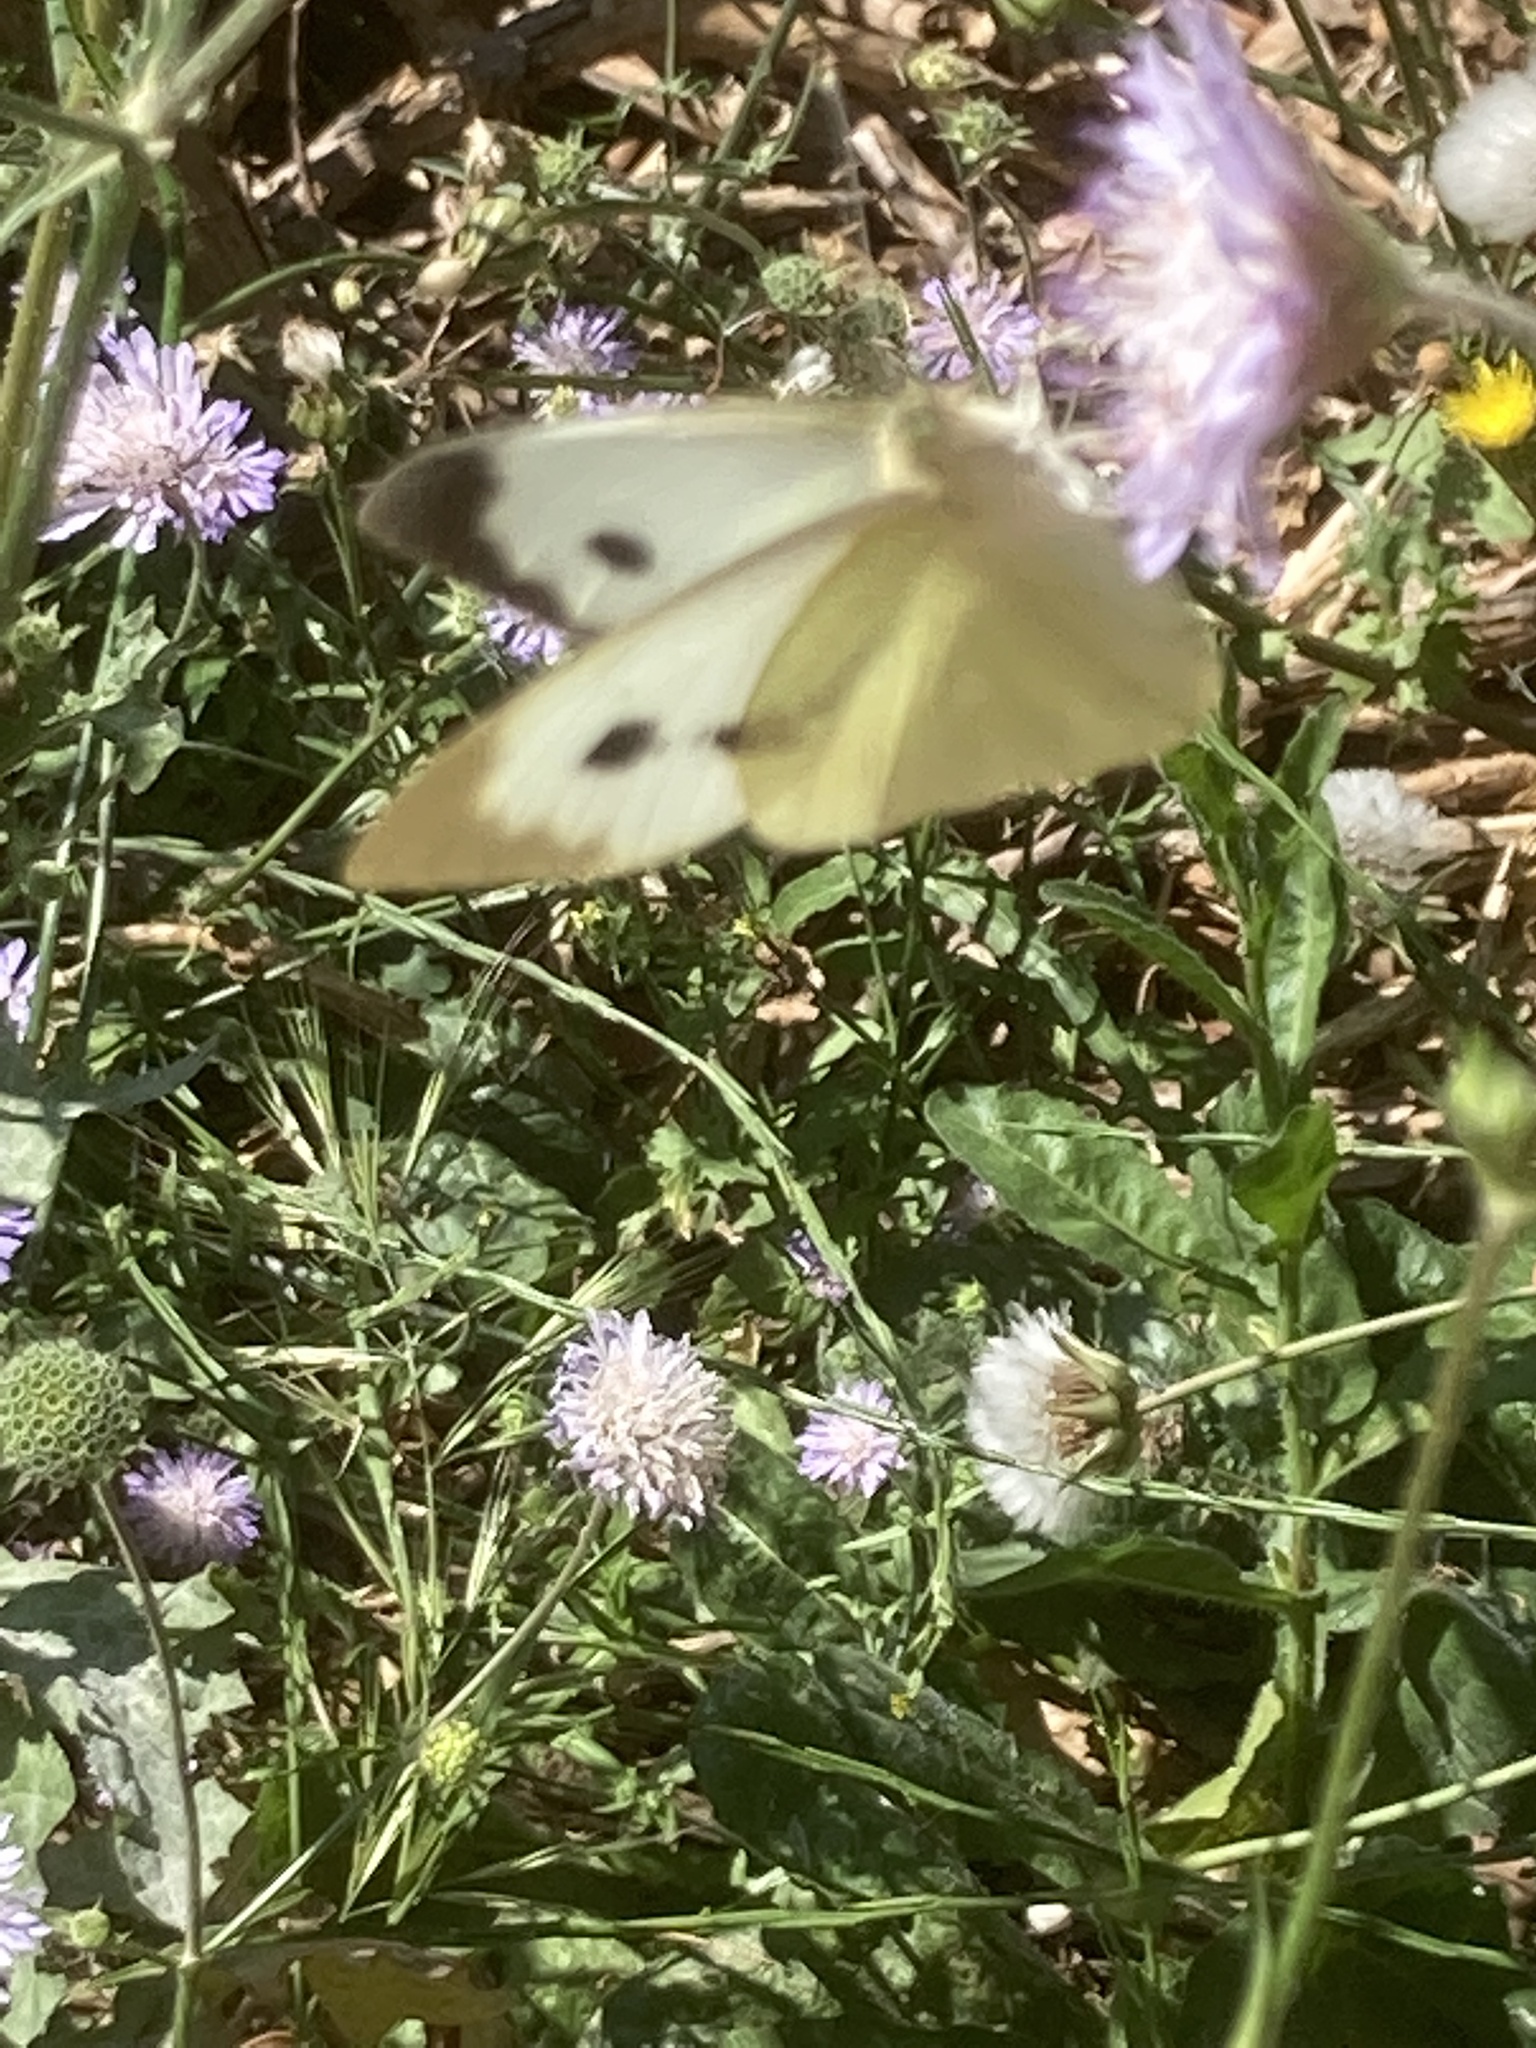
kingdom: Animalia
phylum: Arthropoda
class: Insecta
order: Lepidoptera
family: Pieridae
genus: Pieris
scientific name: Pieris brassicae
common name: Large white
